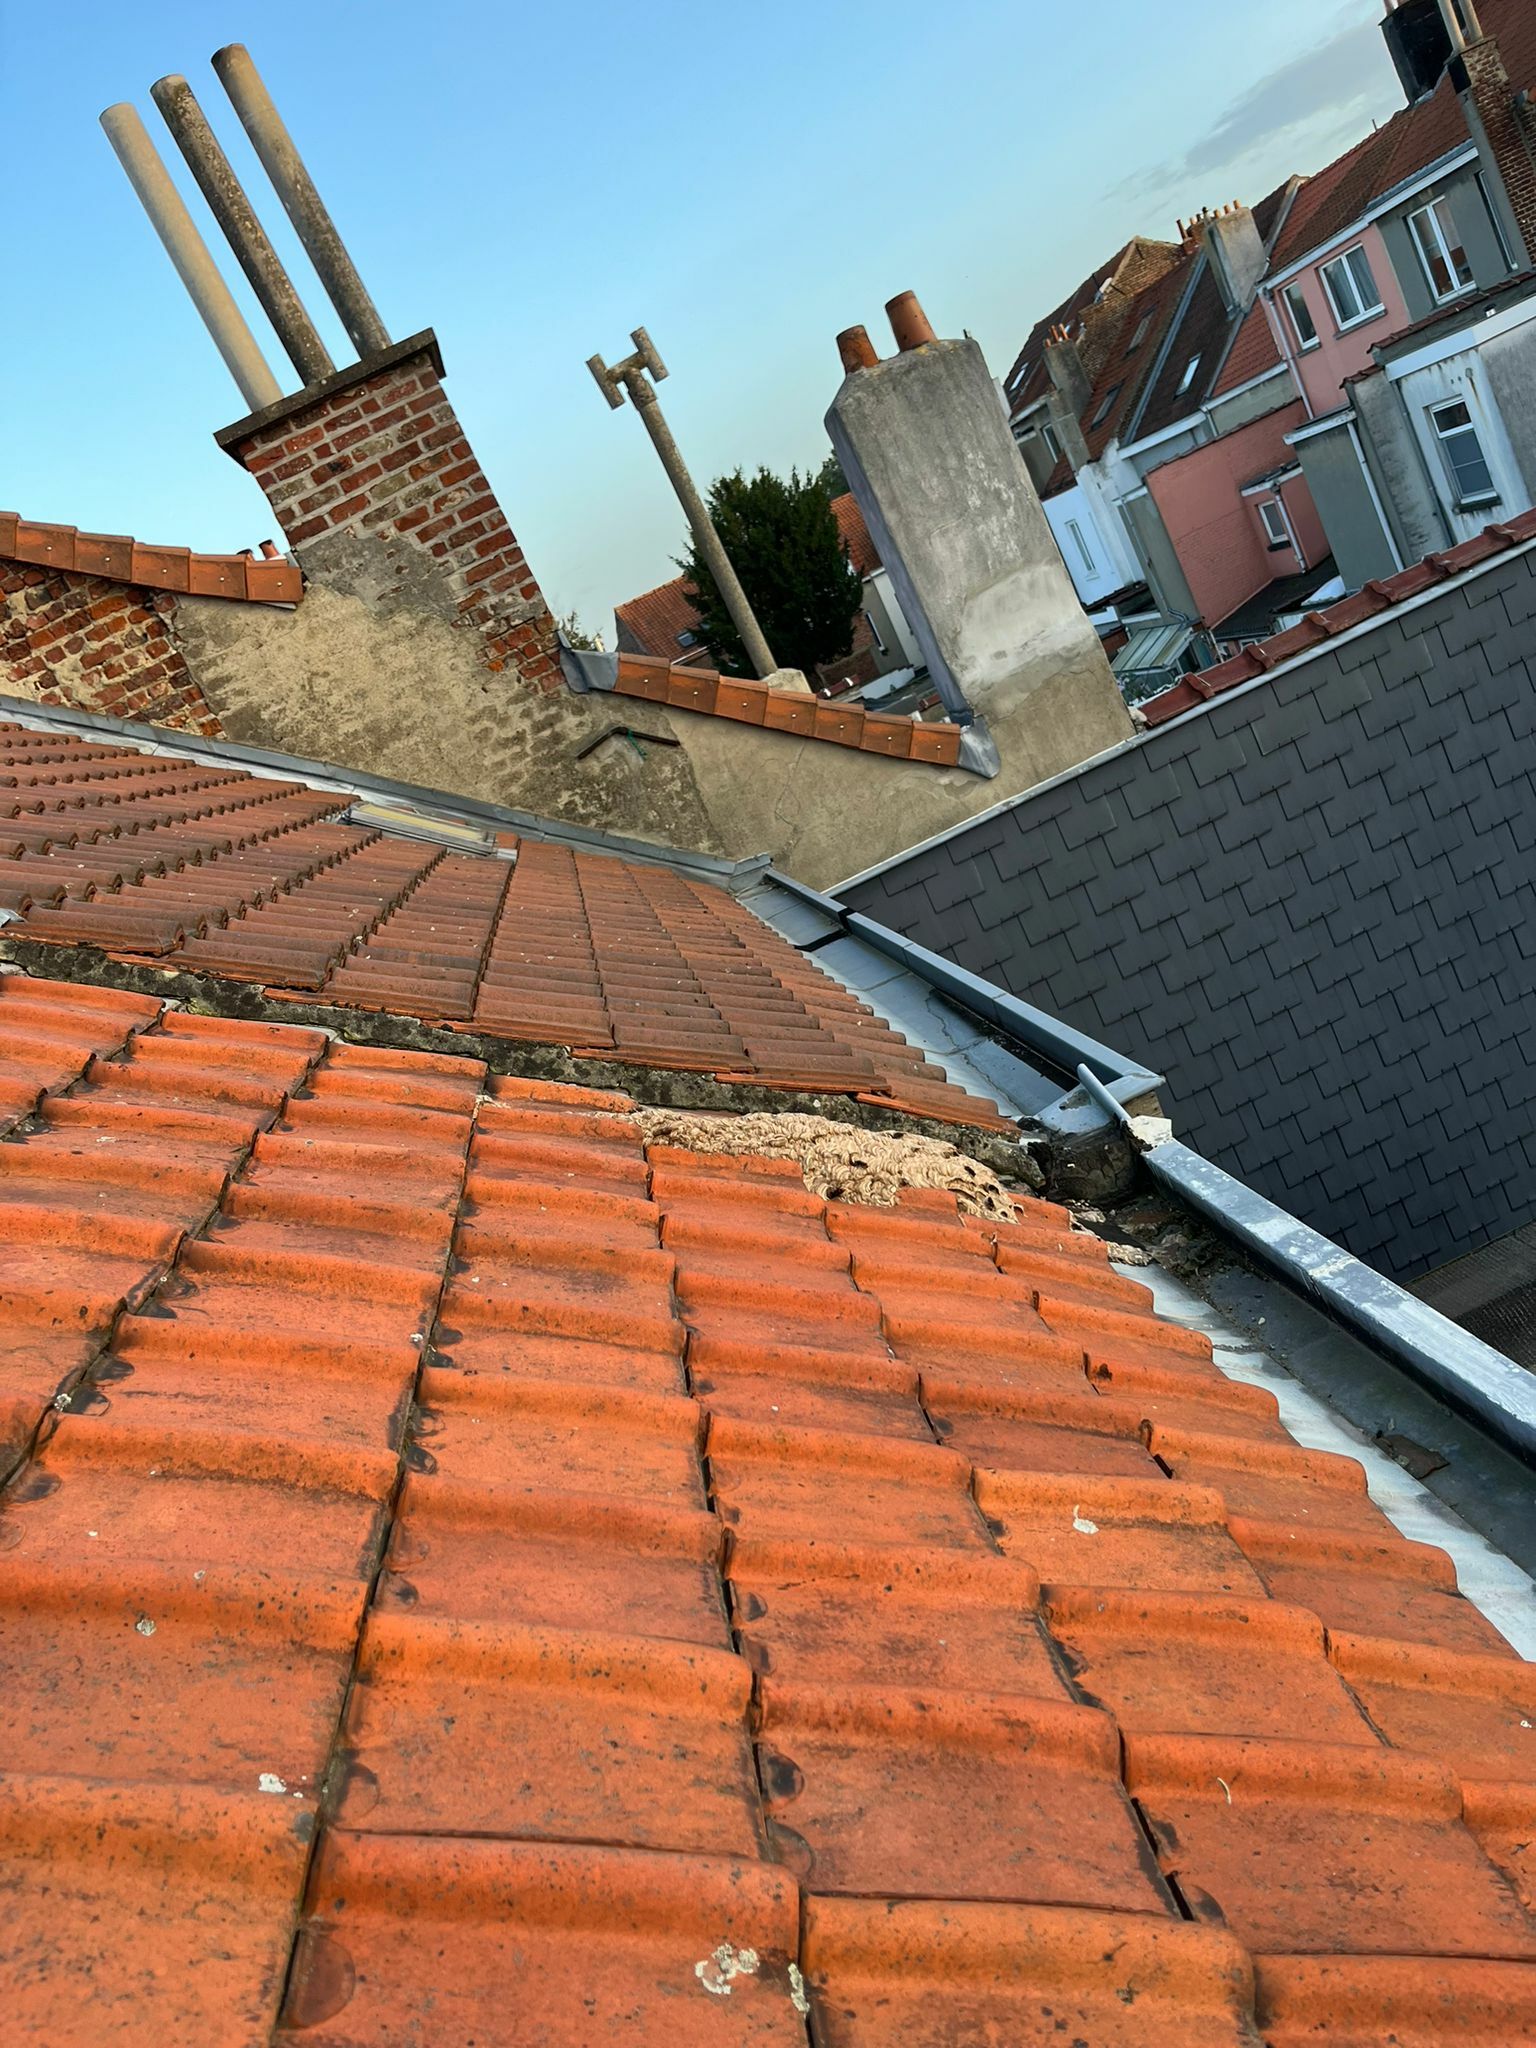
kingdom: Animalia
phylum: Arthropoda
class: Insecta
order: Hymenoptera
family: Vespidae
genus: Vespa
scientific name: Vespa velutina
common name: Asian hornet
